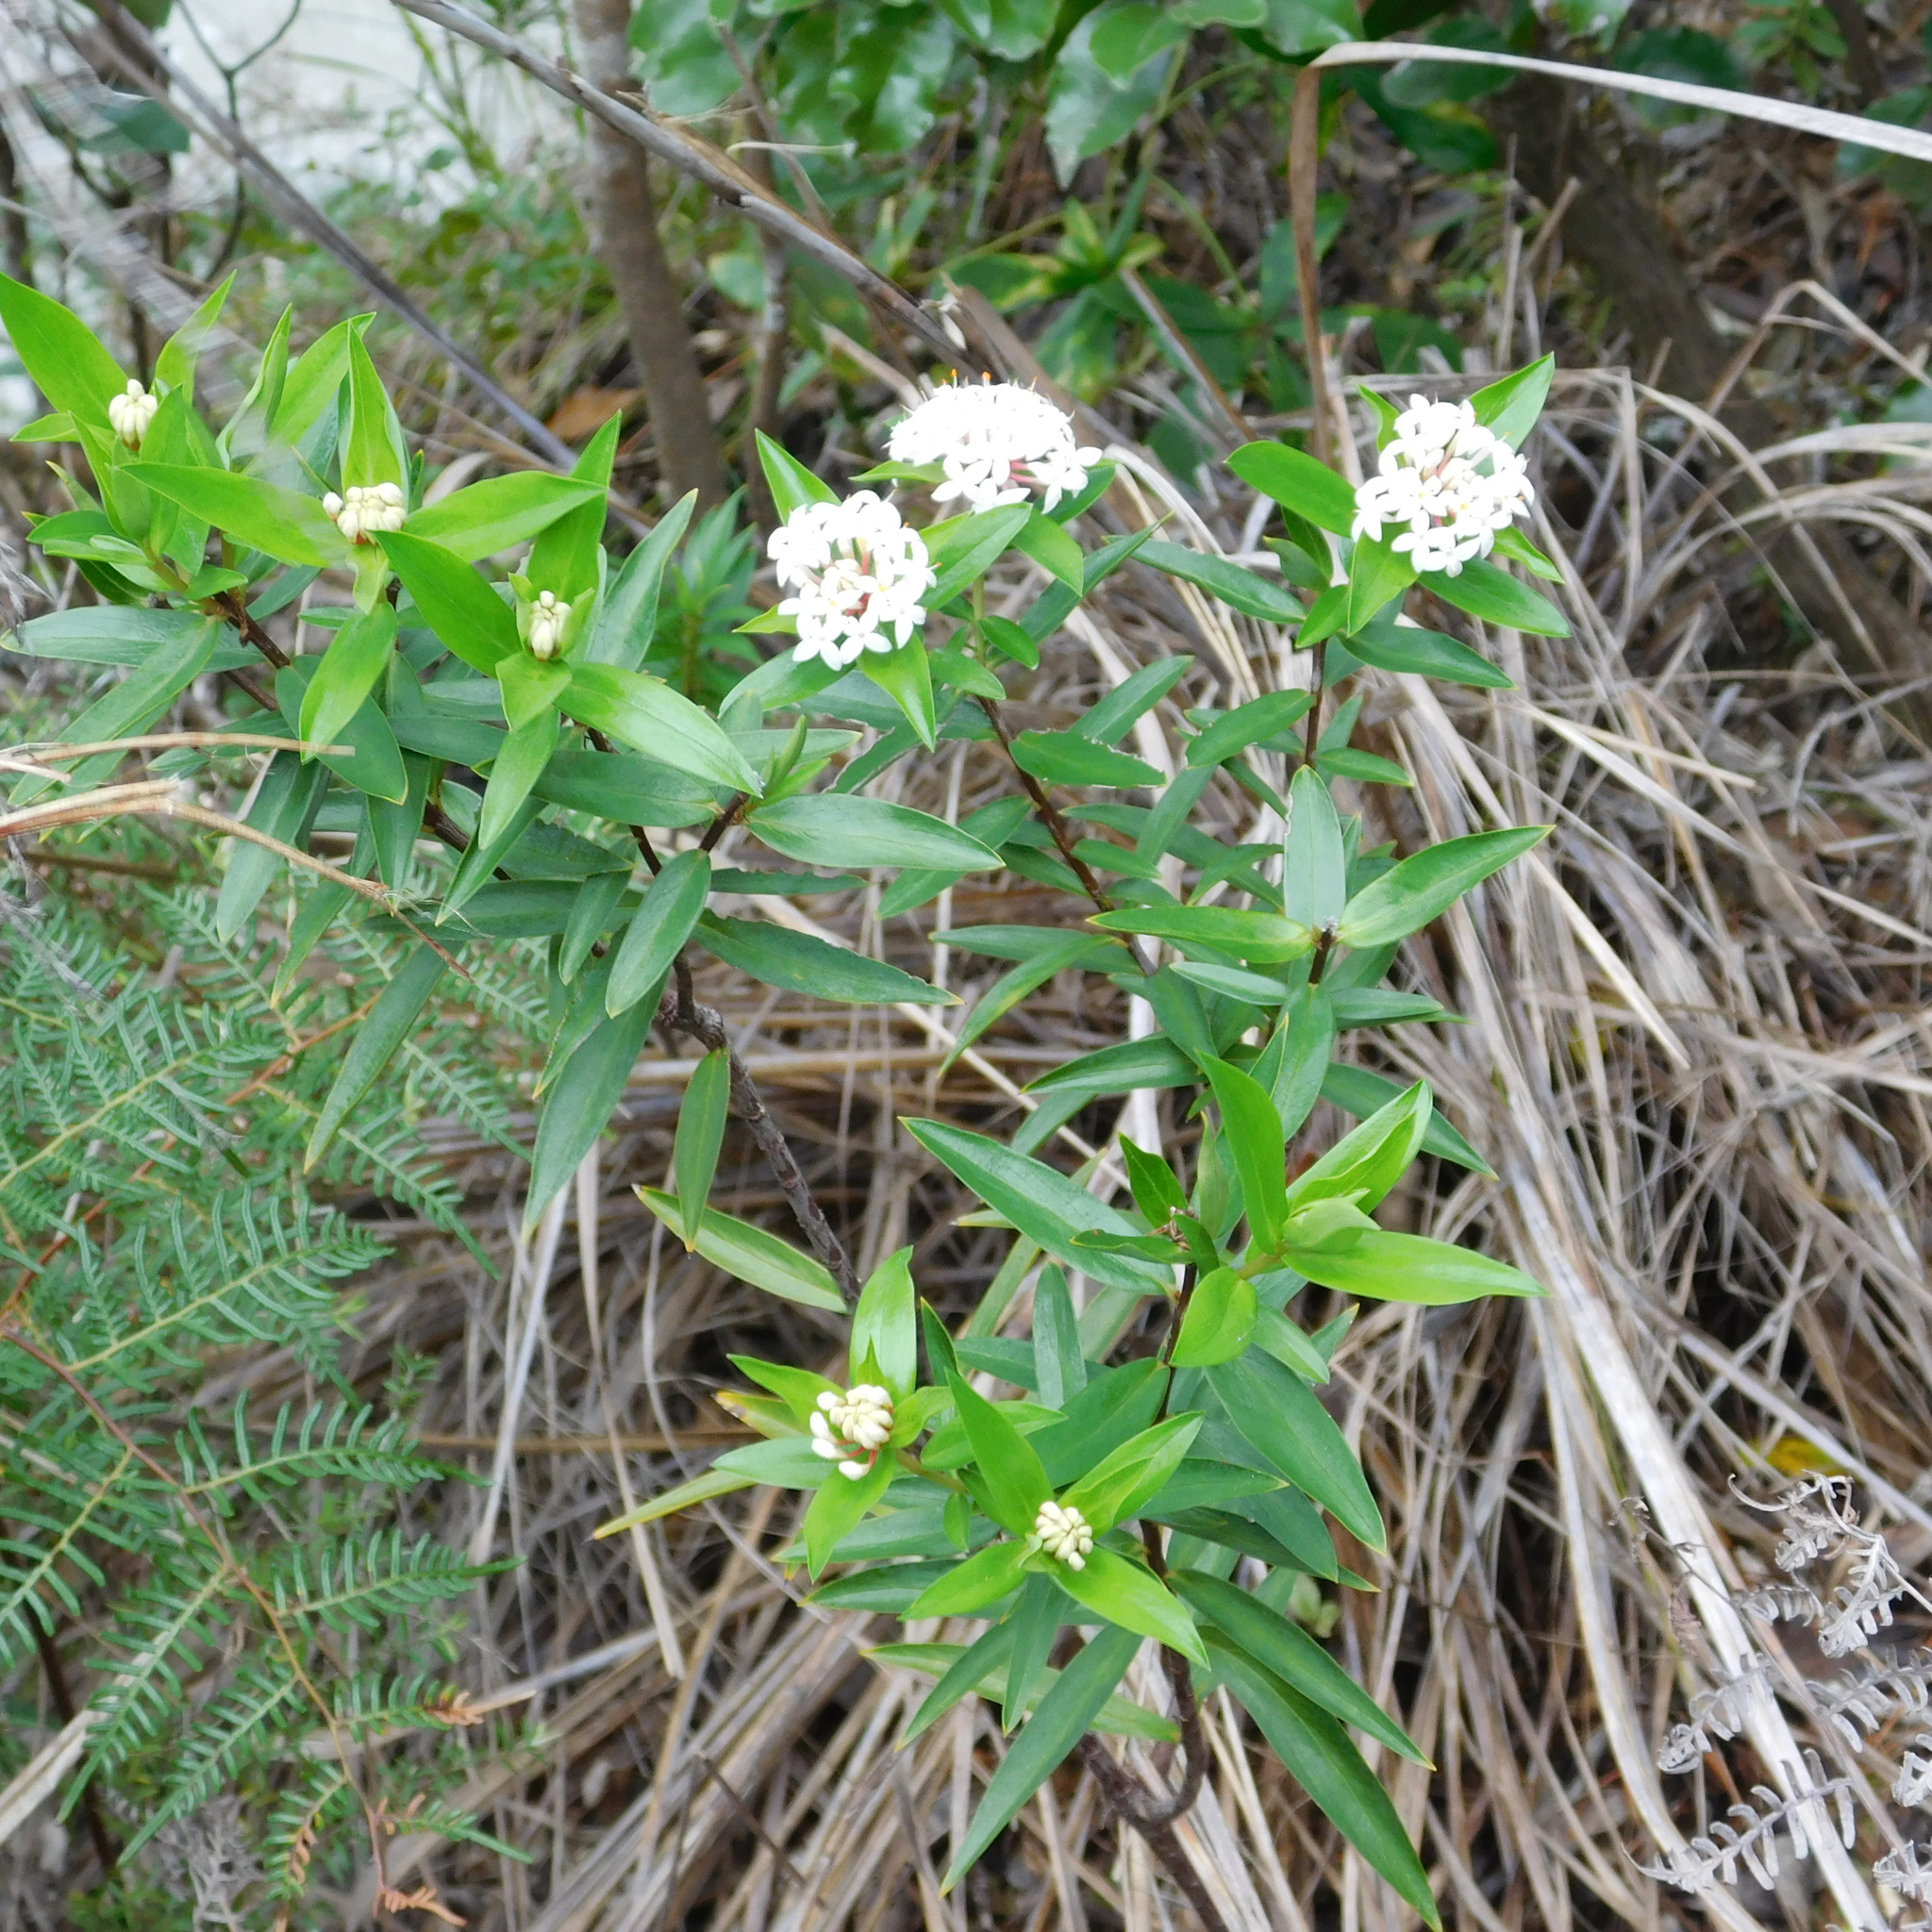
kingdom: Plantae
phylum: Tracheophyta
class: Magnoliopsida
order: Malvales
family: Thymelaeaceae
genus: Pimelea
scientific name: Pimelea longifolia
